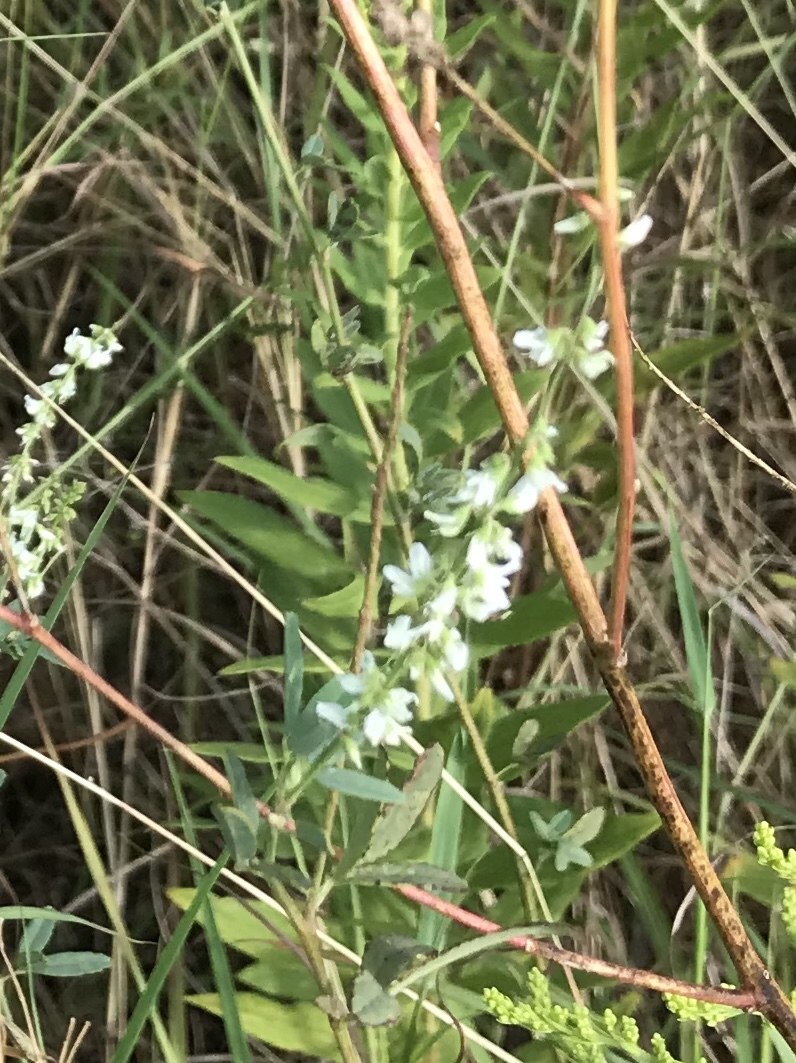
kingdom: Plantae
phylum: Tracheophyta
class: Magnoliopsida
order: Fabales
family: Fabaceae
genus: Melilotus
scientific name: Melilotus albus
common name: White melilot
